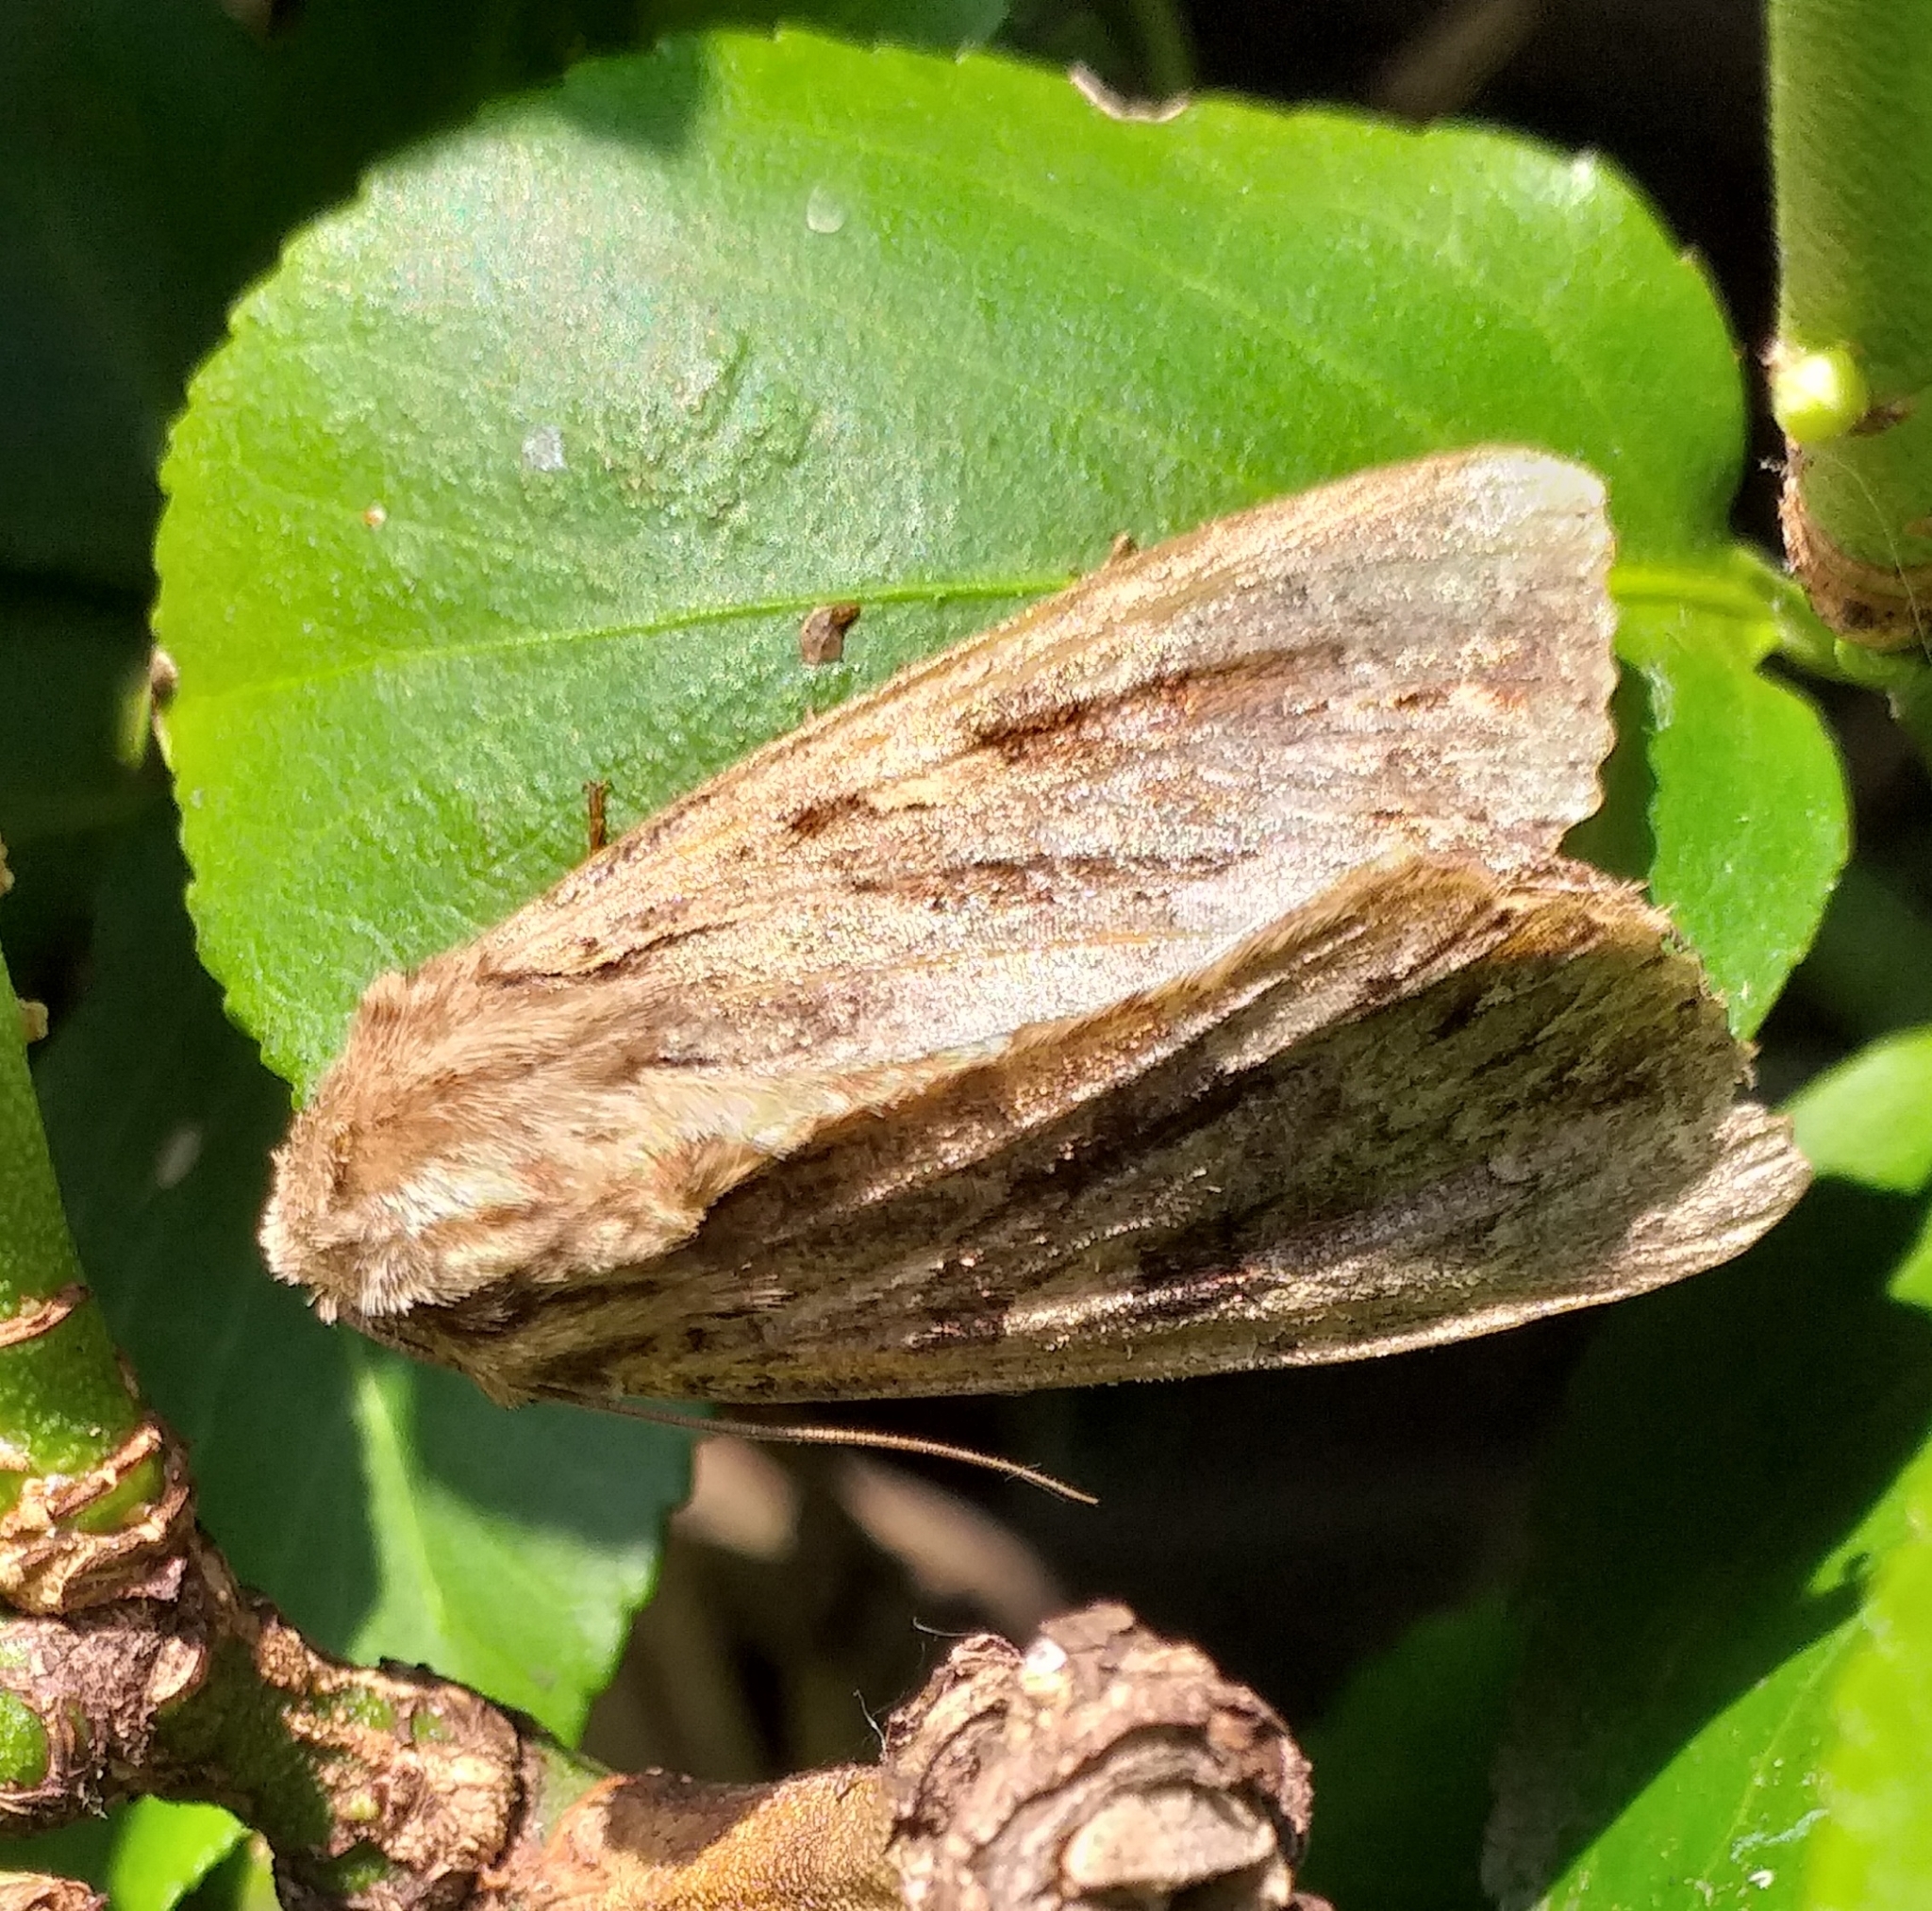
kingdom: Animalia
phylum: Arthropoda
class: Insecta
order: Lepidoptera
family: Noctuidae
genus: Apamea
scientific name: Apamea monoglypha
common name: Dark arches
